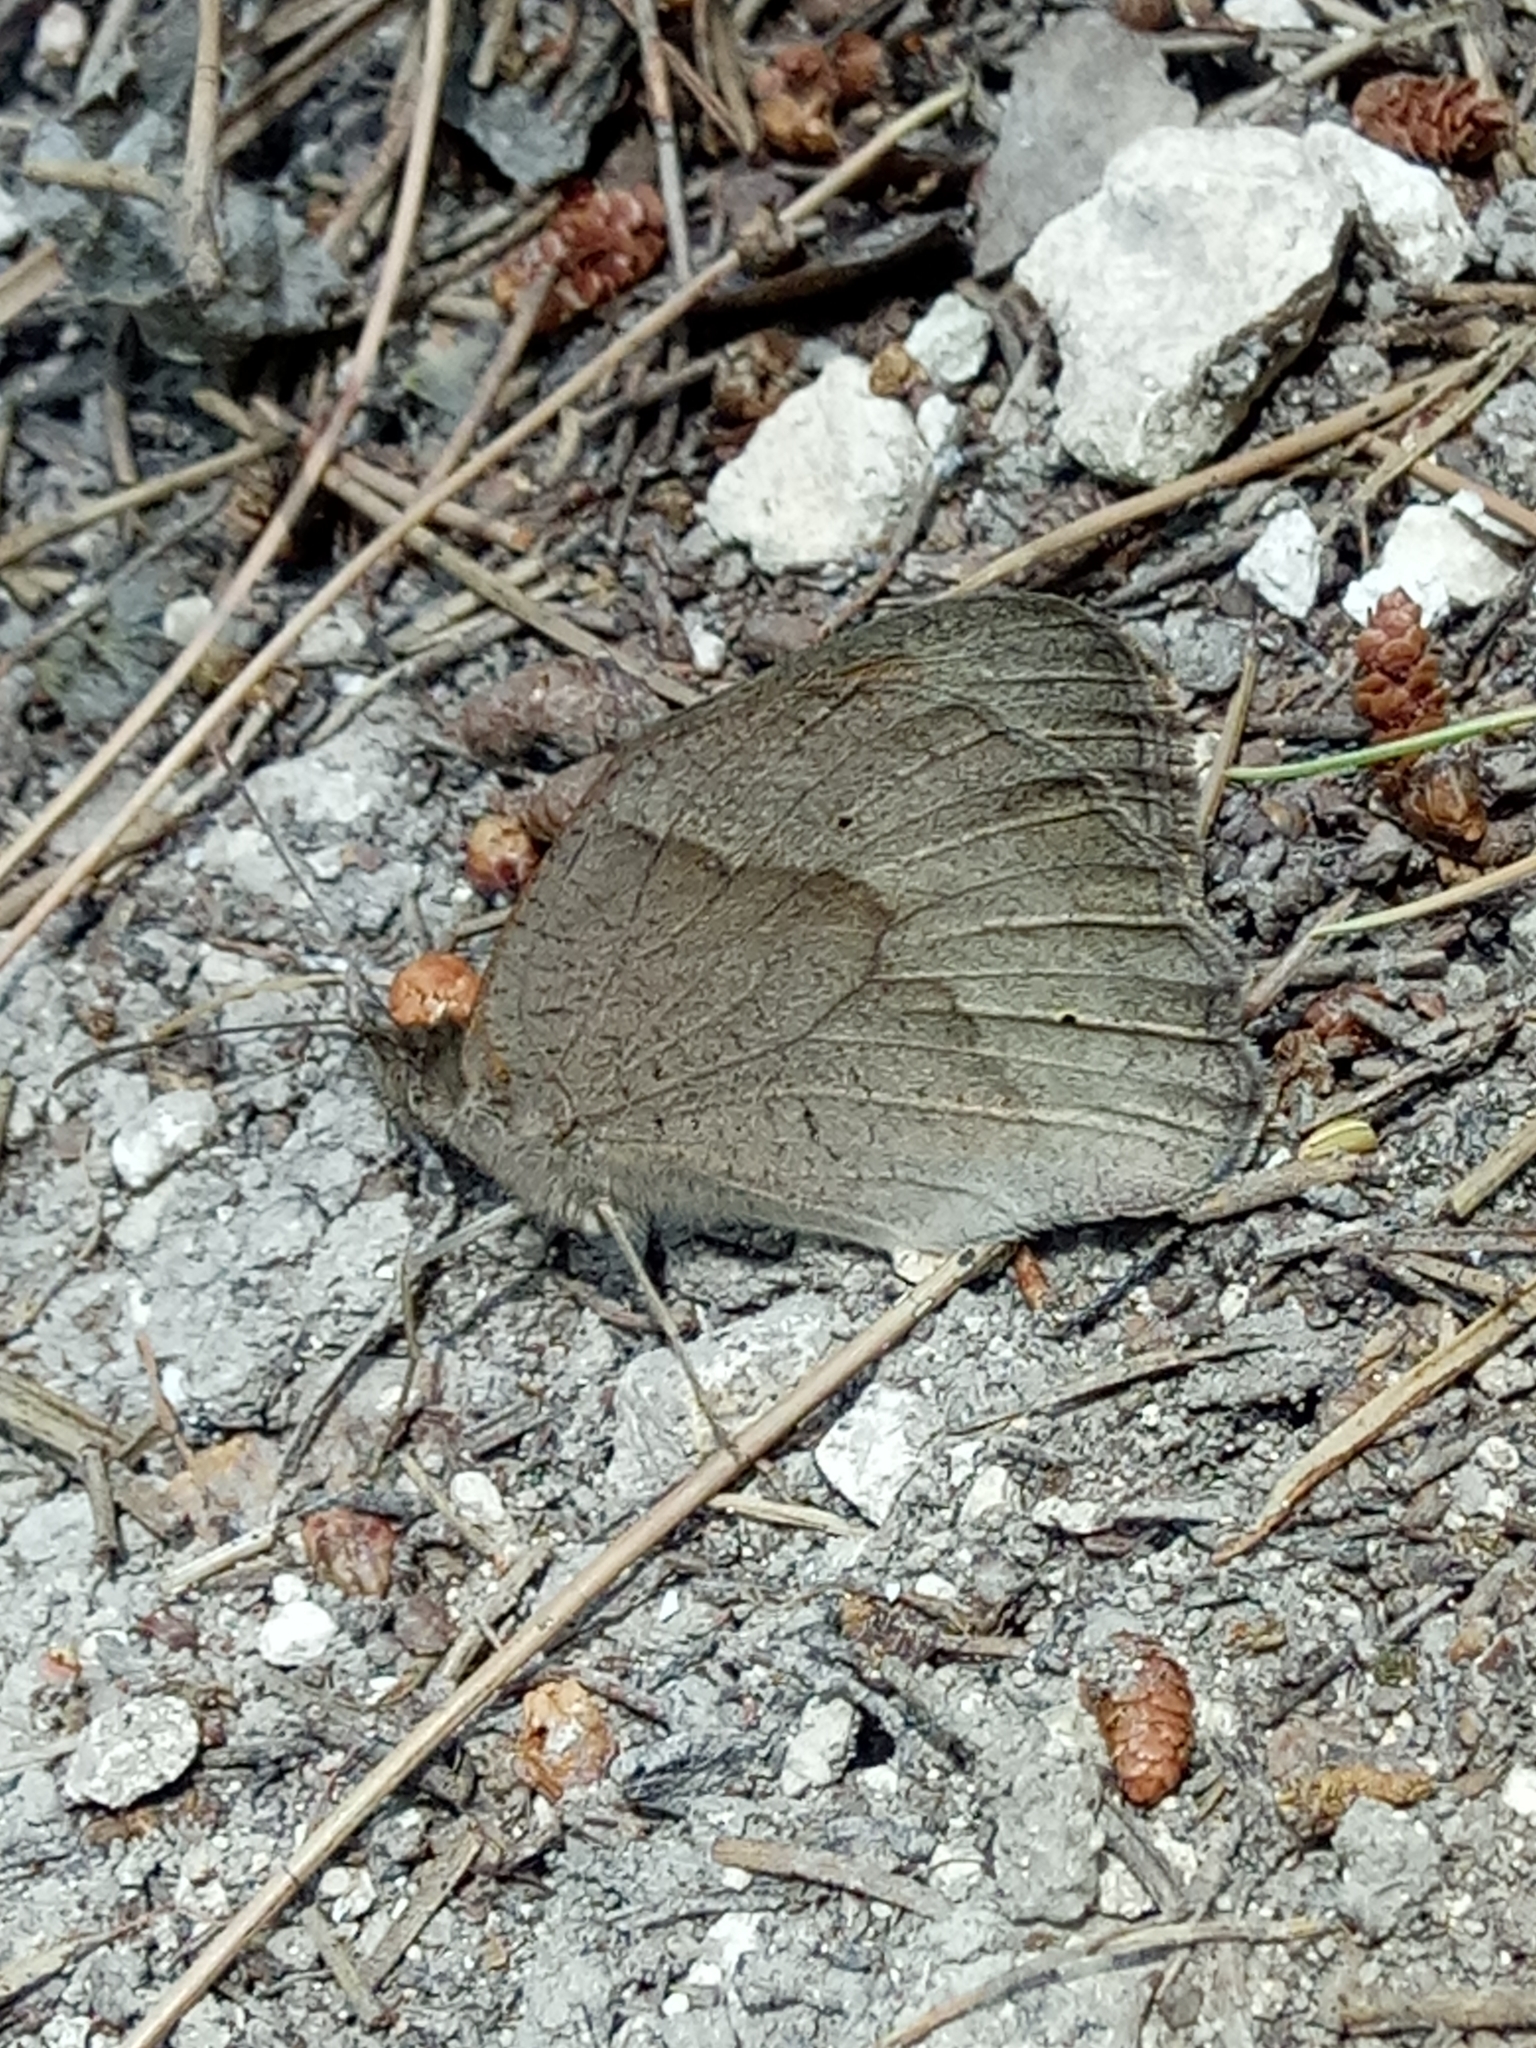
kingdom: Animalia
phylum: Arthropoda
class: Insecta
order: Lepidoptera
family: Nymphalidae
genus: Maniola
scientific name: Maniola jurtina
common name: Meadow brown
